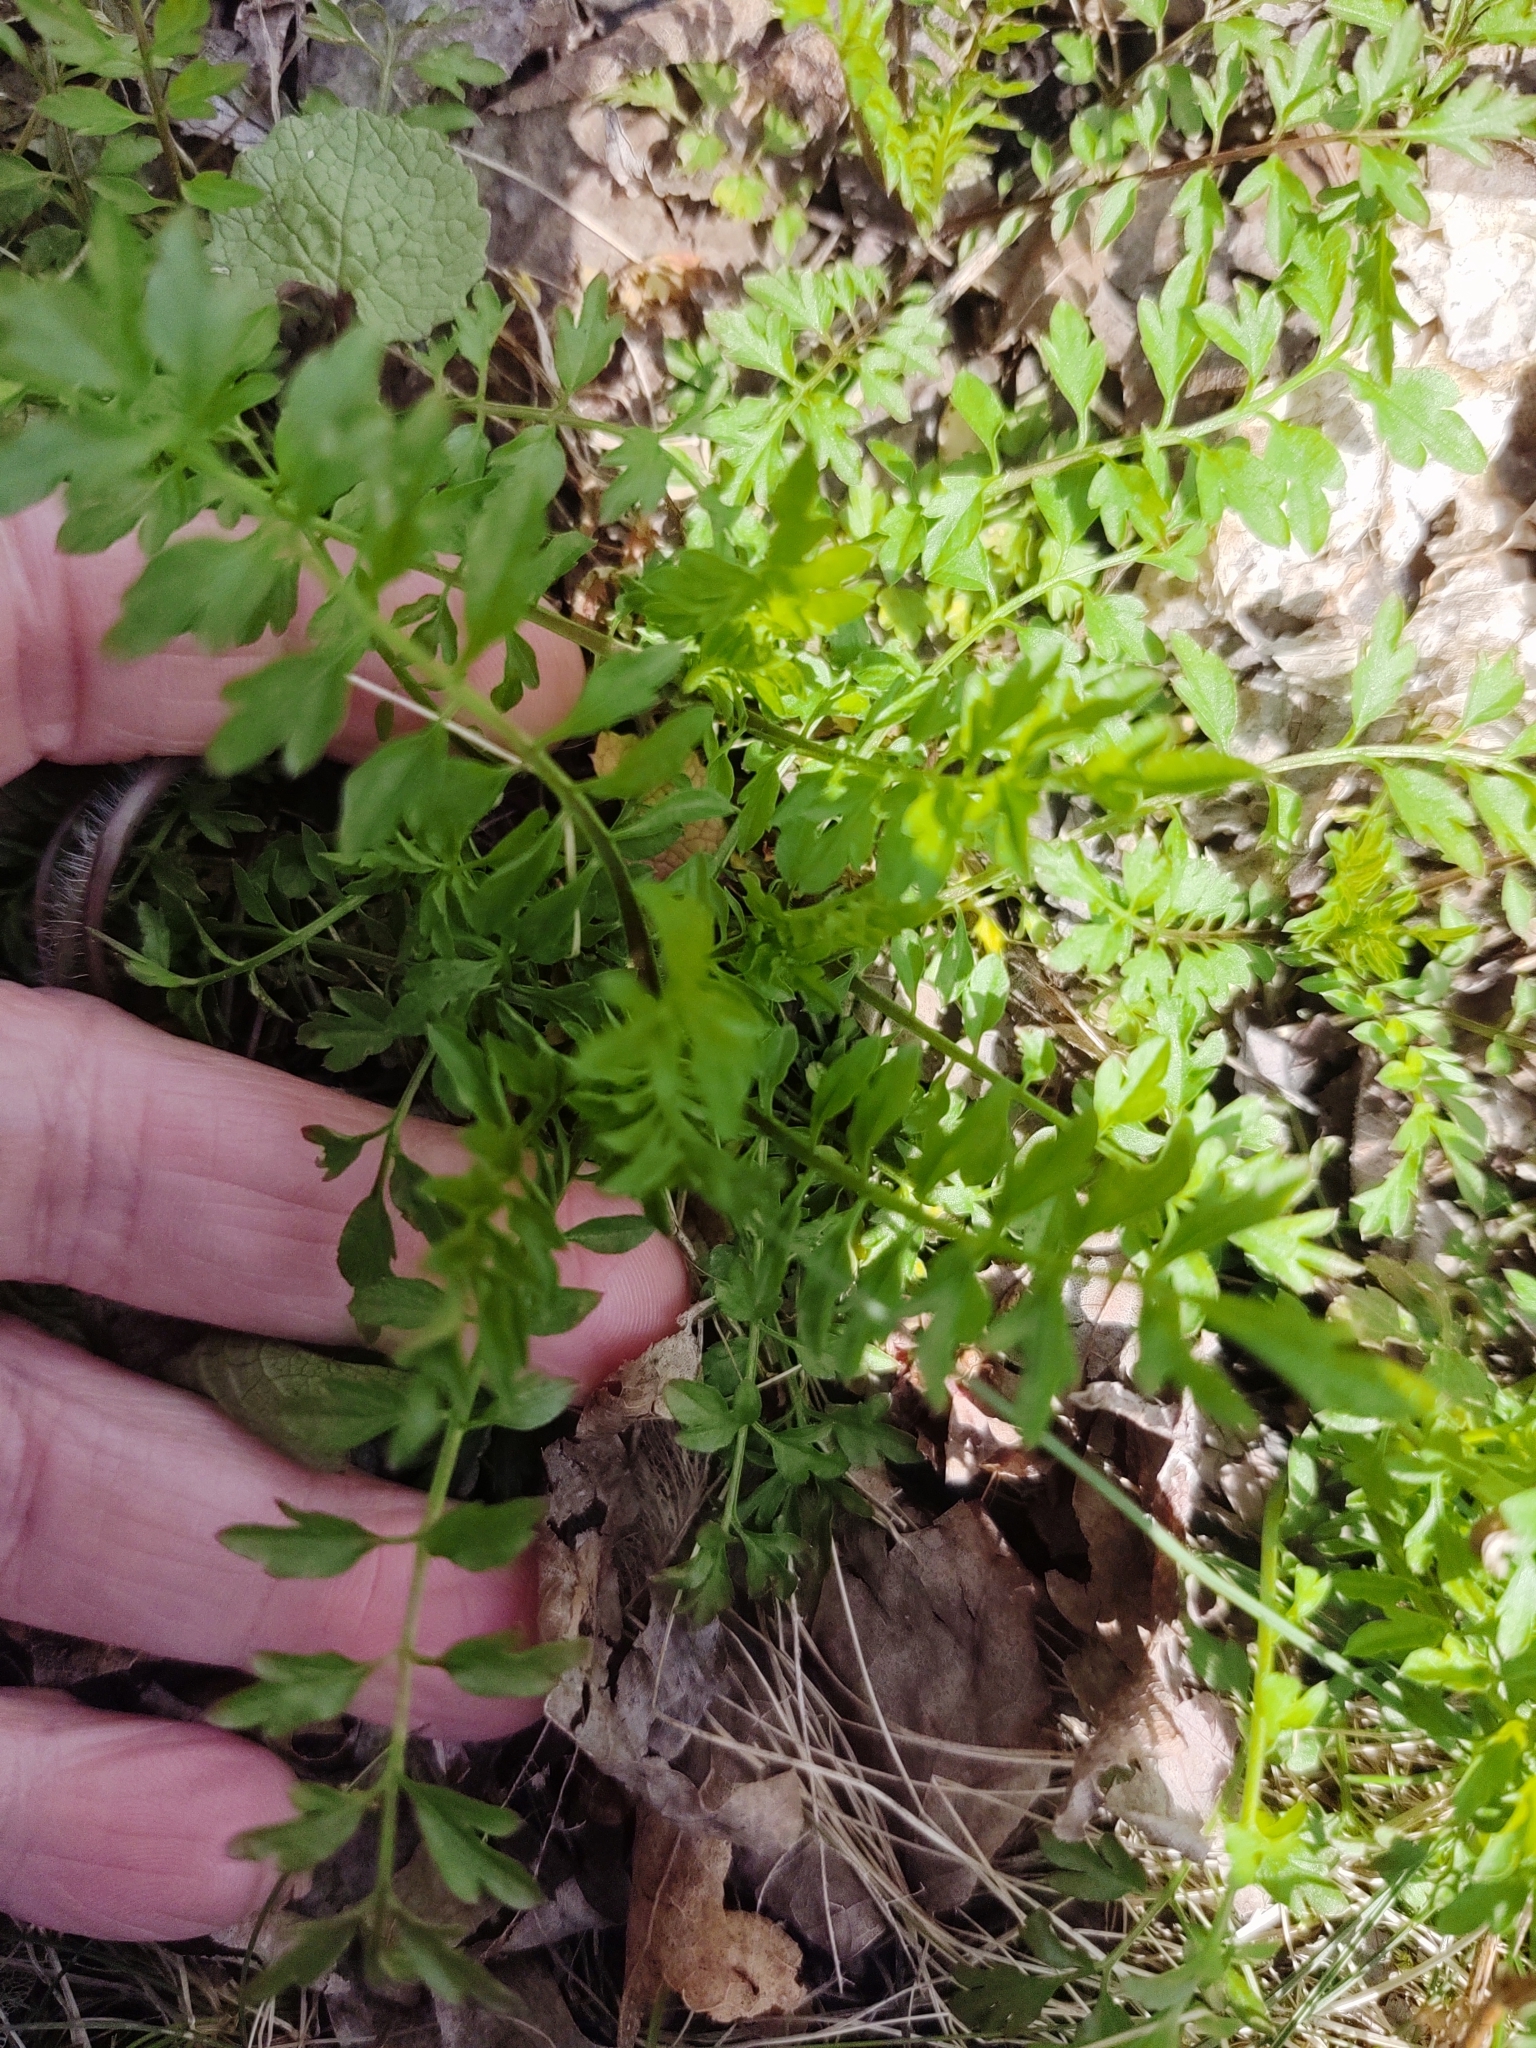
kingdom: Plantae
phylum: Tracheophyta
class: Magnoliopsida
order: Brassicales
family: Brassicaceae
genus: Cardamine
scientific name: Cardamine impatiens
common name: Narrow-leaved bitter-cress
